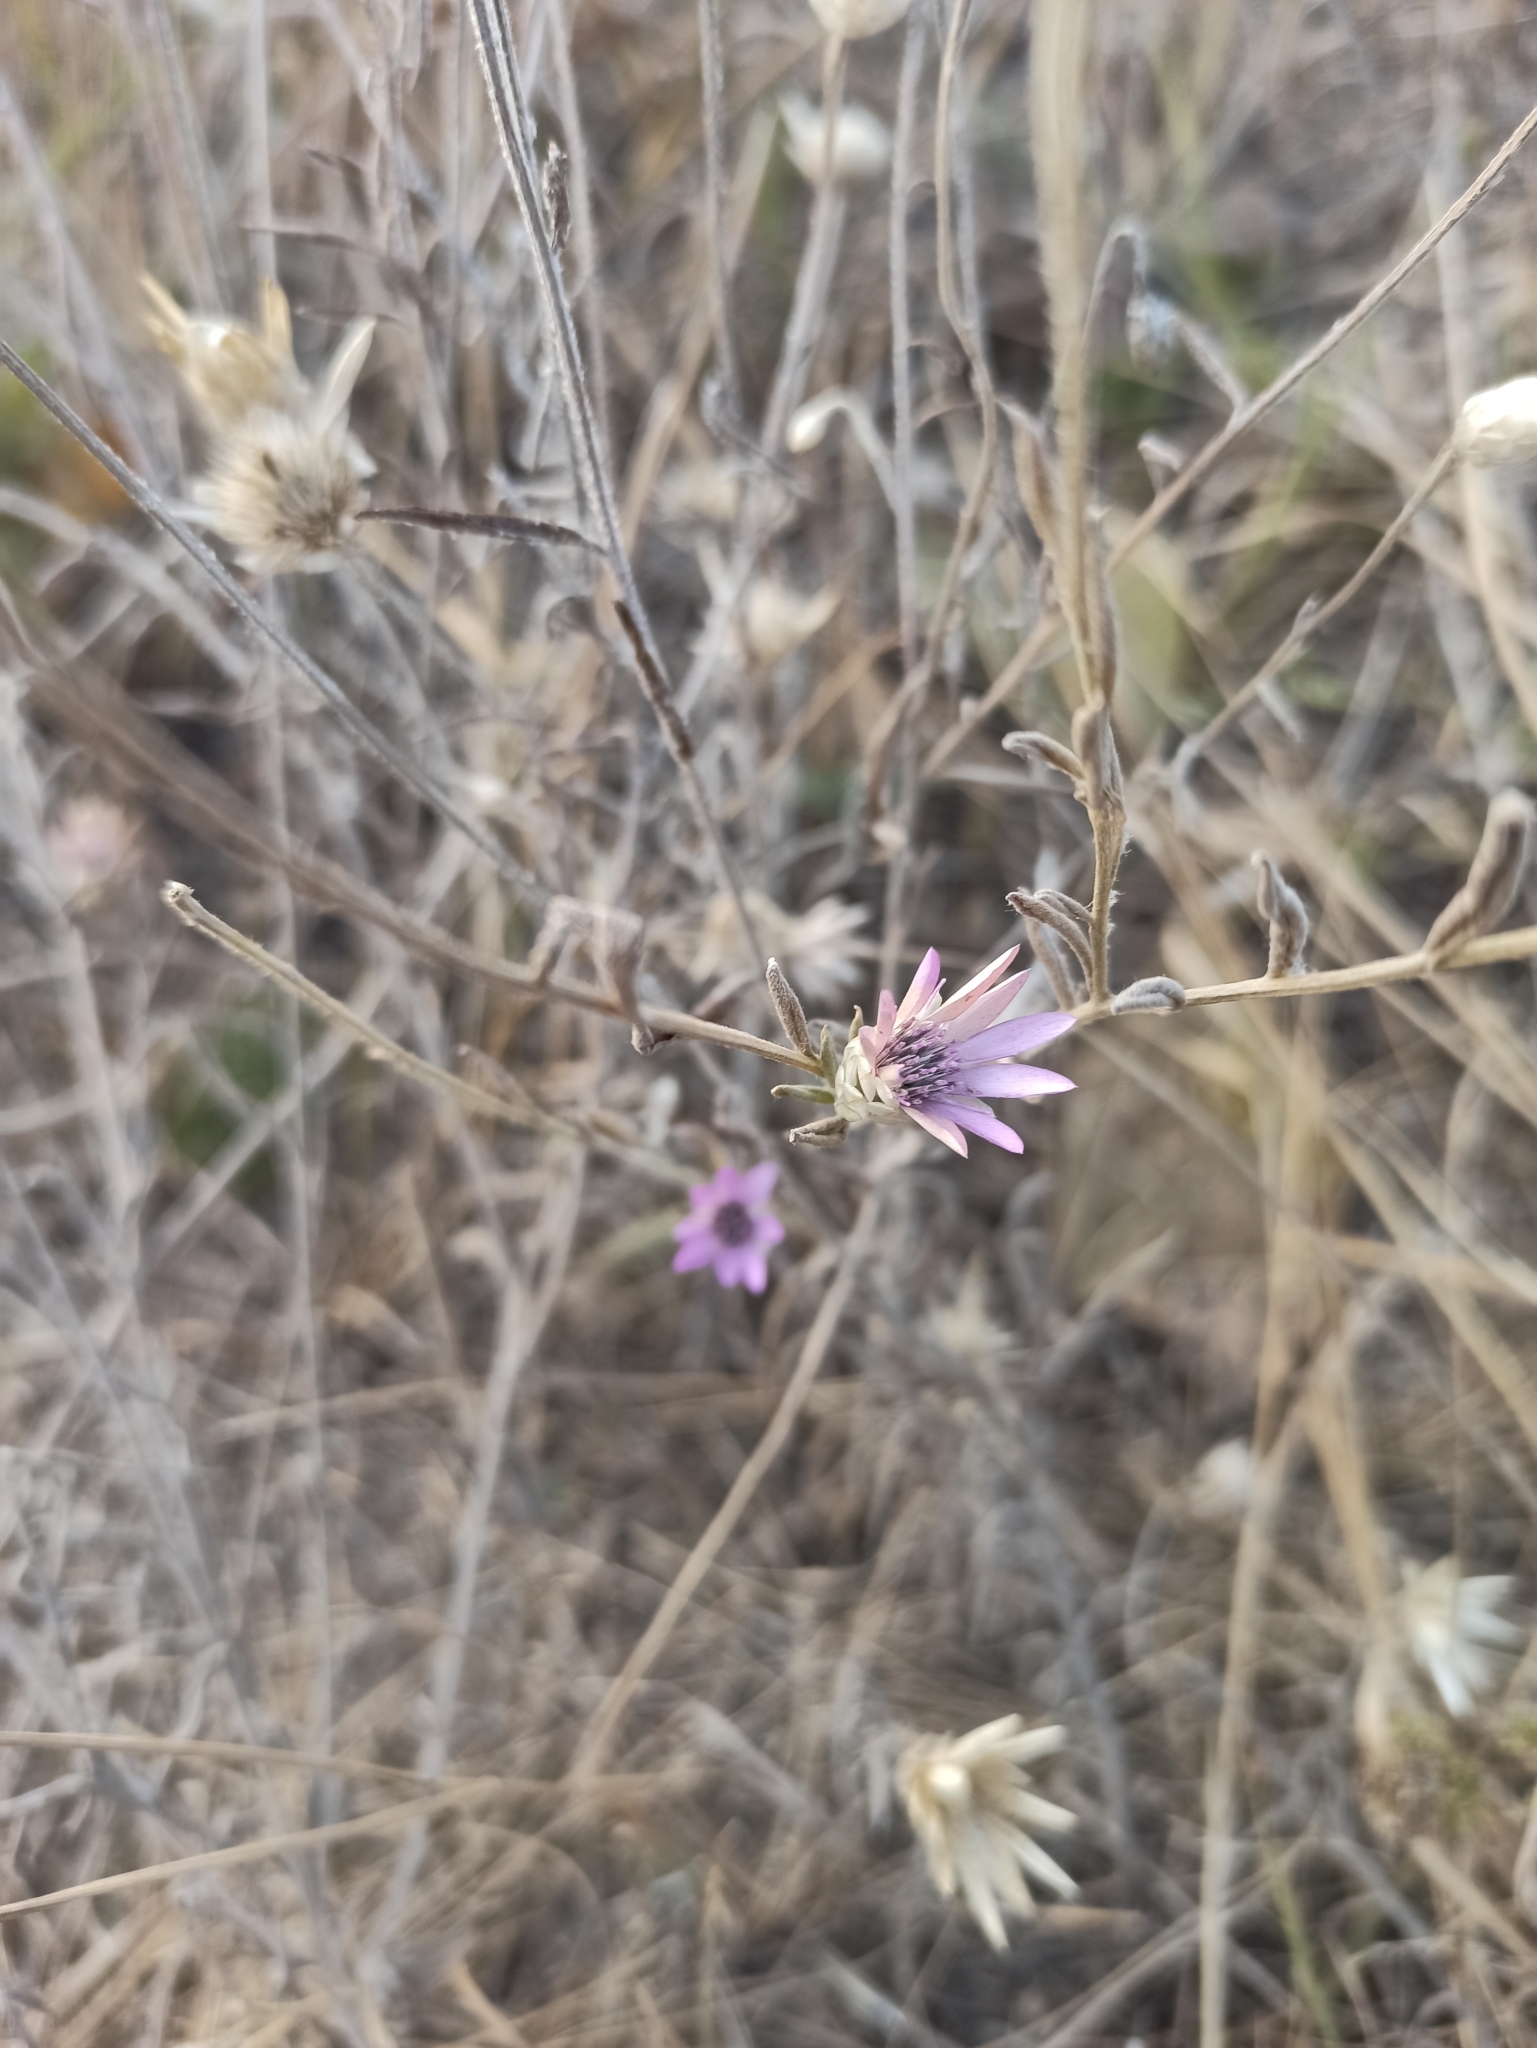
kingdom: Plantae
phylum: Tracheophyta
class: Magnoliopsida
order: Asterales
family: Asteraceae
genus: Xeranthemum
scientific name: Xeranthemum annuum
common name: Immortelle
